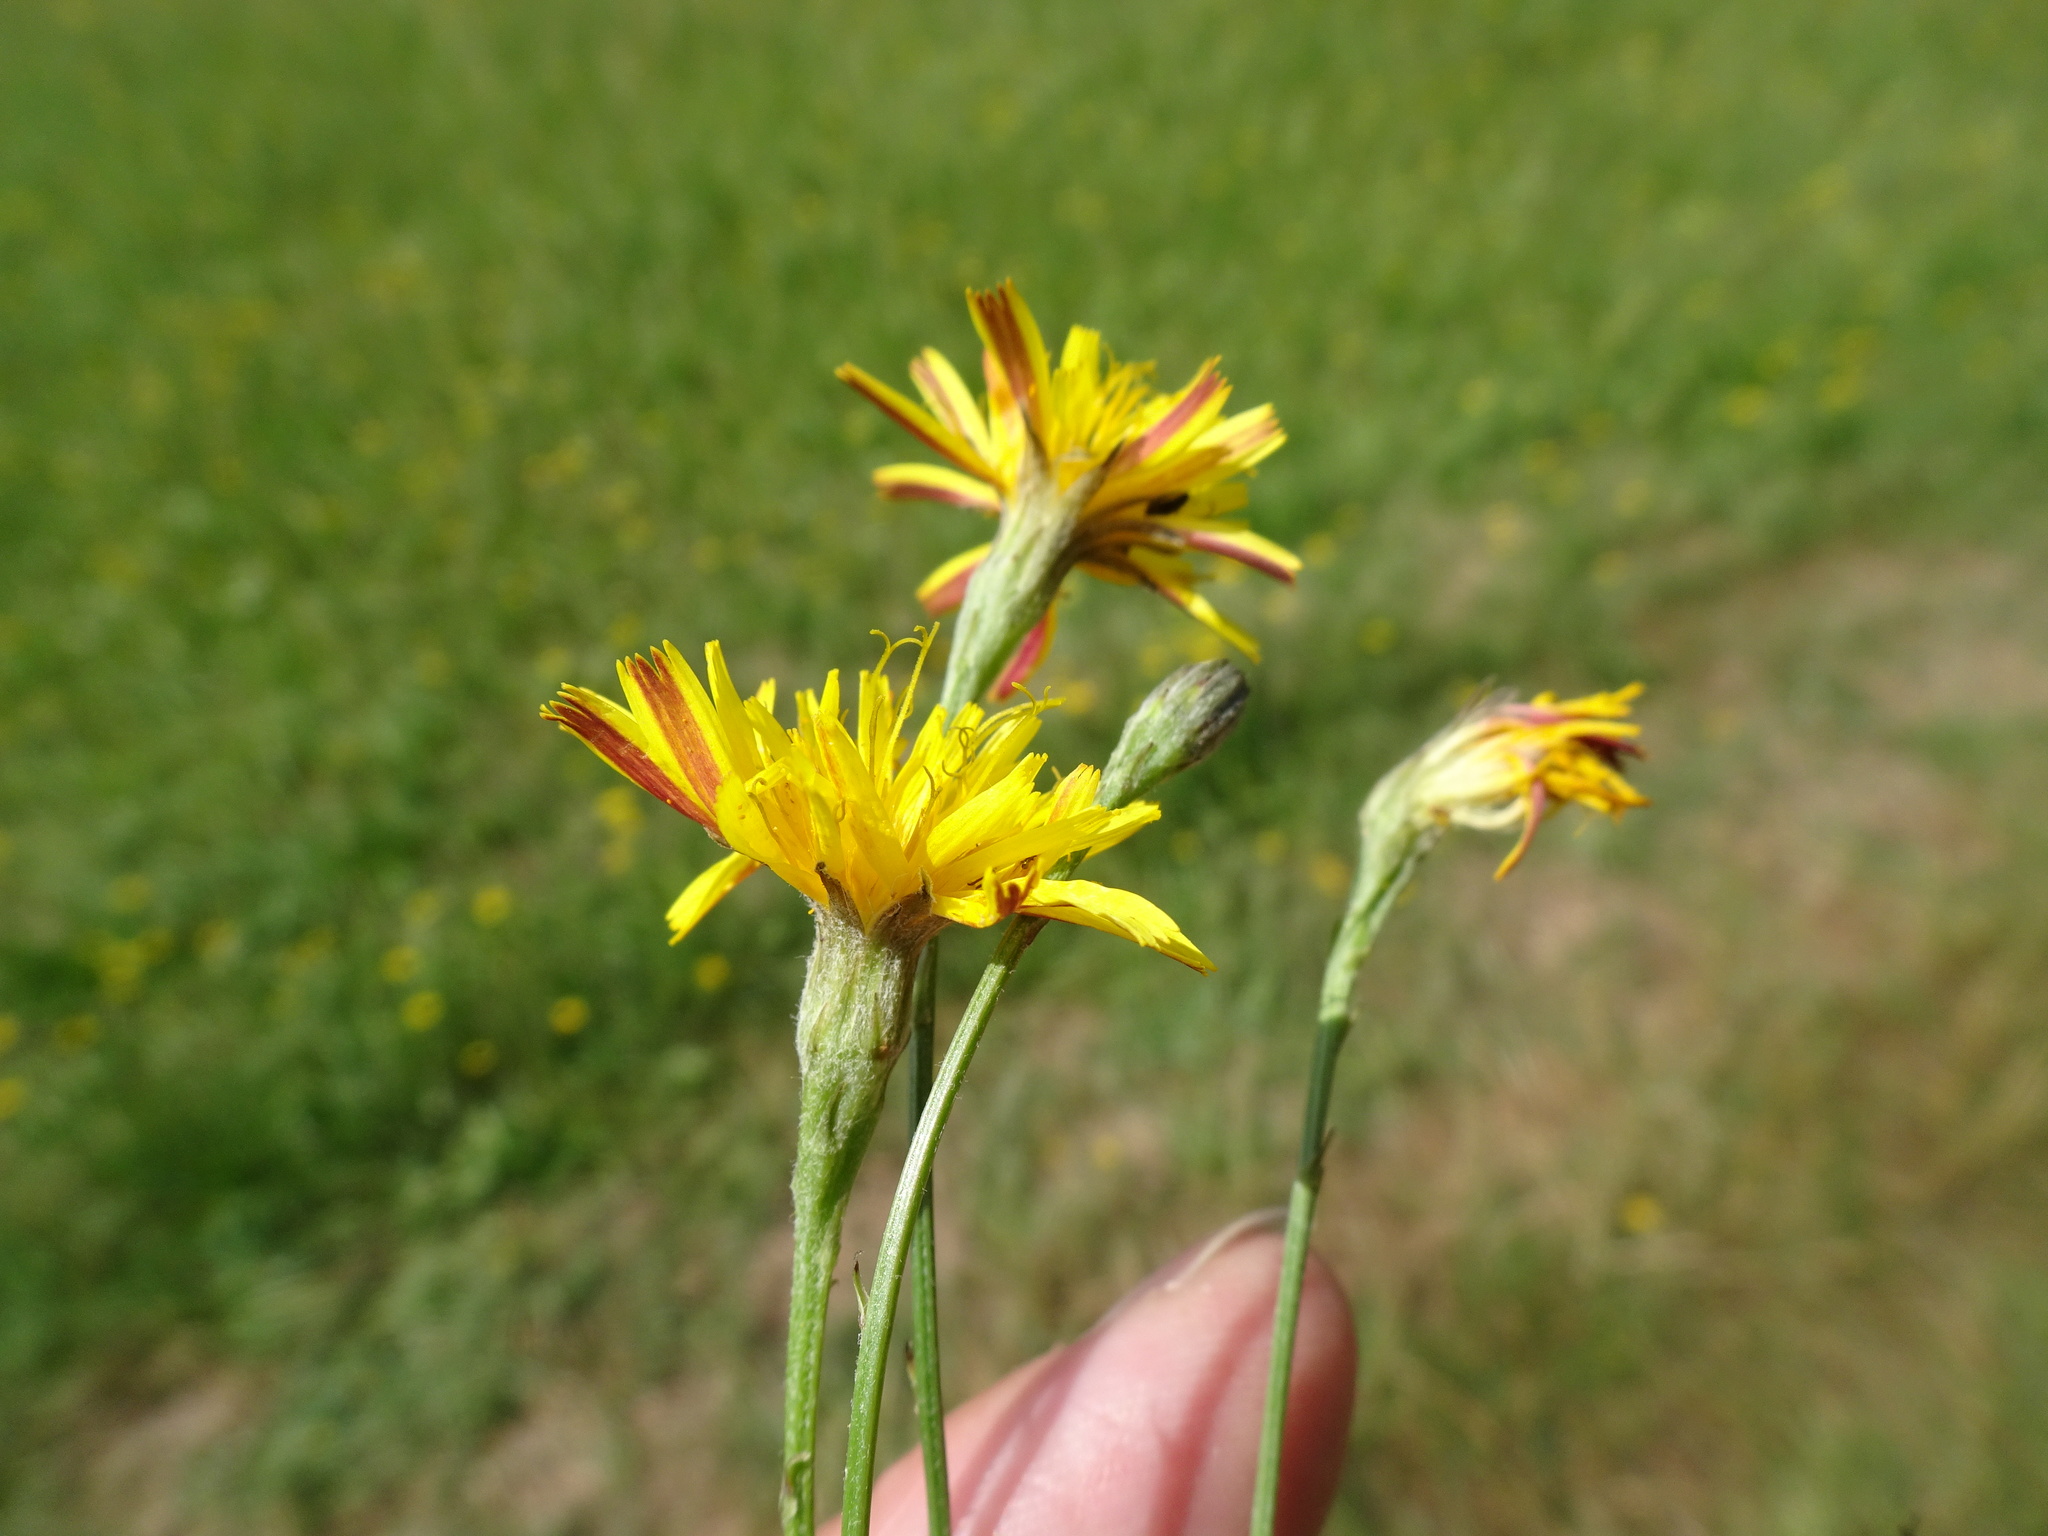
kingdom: Plantae
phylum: Tracheophyta
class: Magnoliopsida
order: Asterales
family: Asteraceae
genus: Scorzoneroides
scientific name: Scorzoneroides autumnalis
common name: Autumn hawkbit
